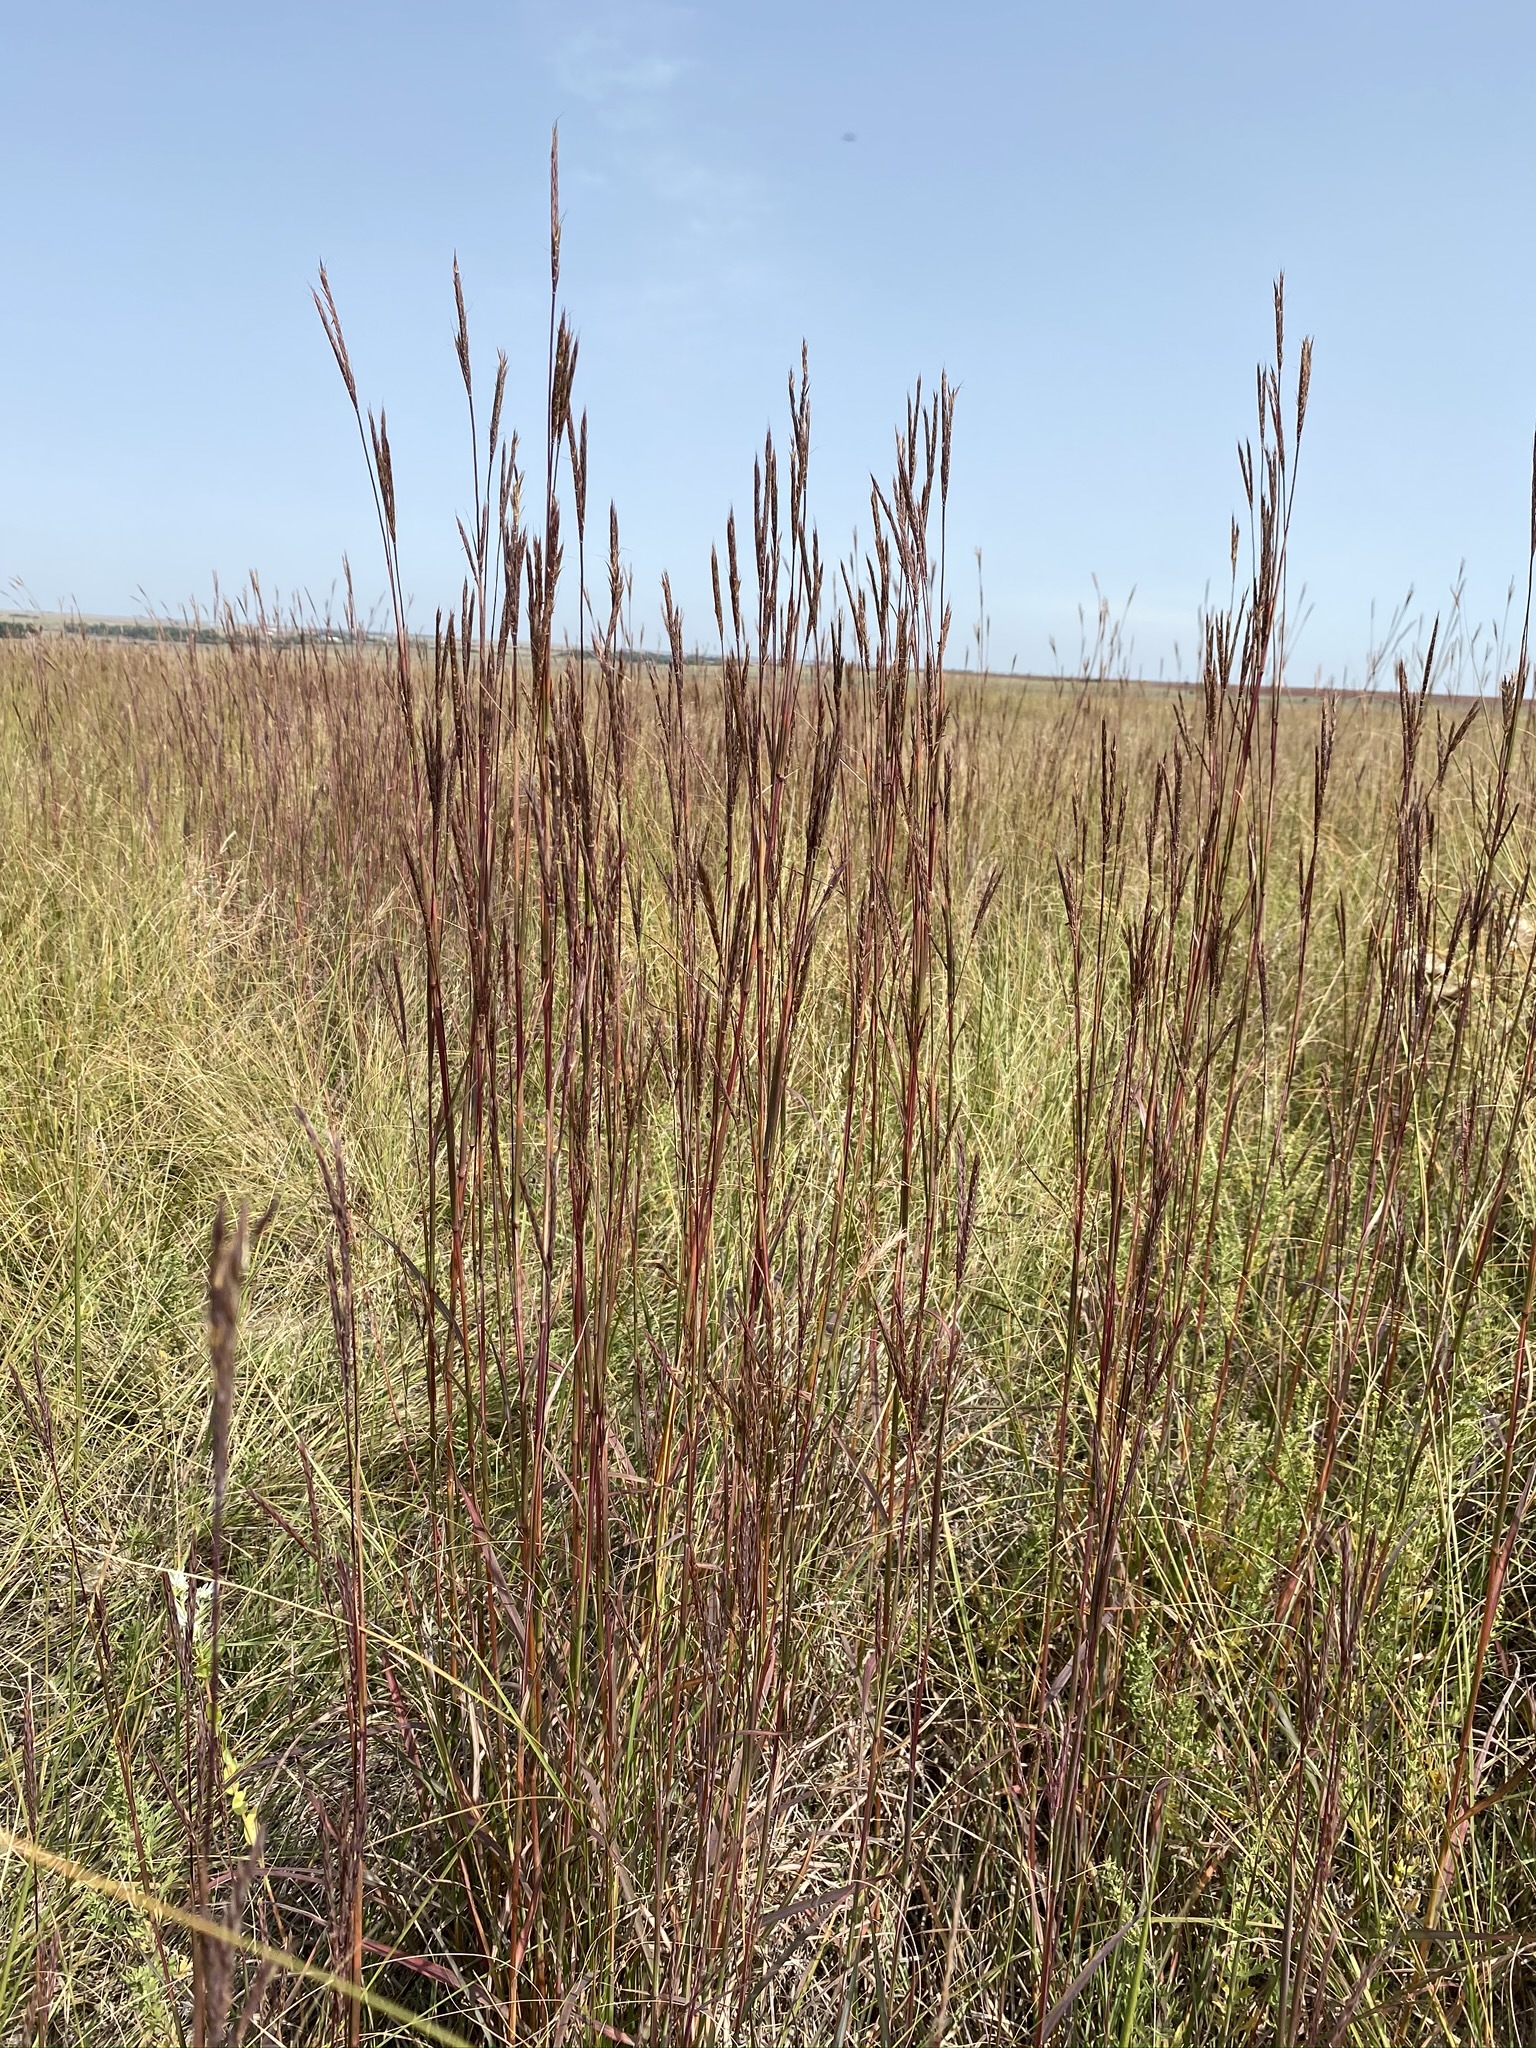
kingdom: Plantae
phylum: Tracheophyta
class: Liliopsida
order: Poales
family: Poaceae
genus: Andropogon
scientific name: Andropogon gerardi
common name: Big bluestem
